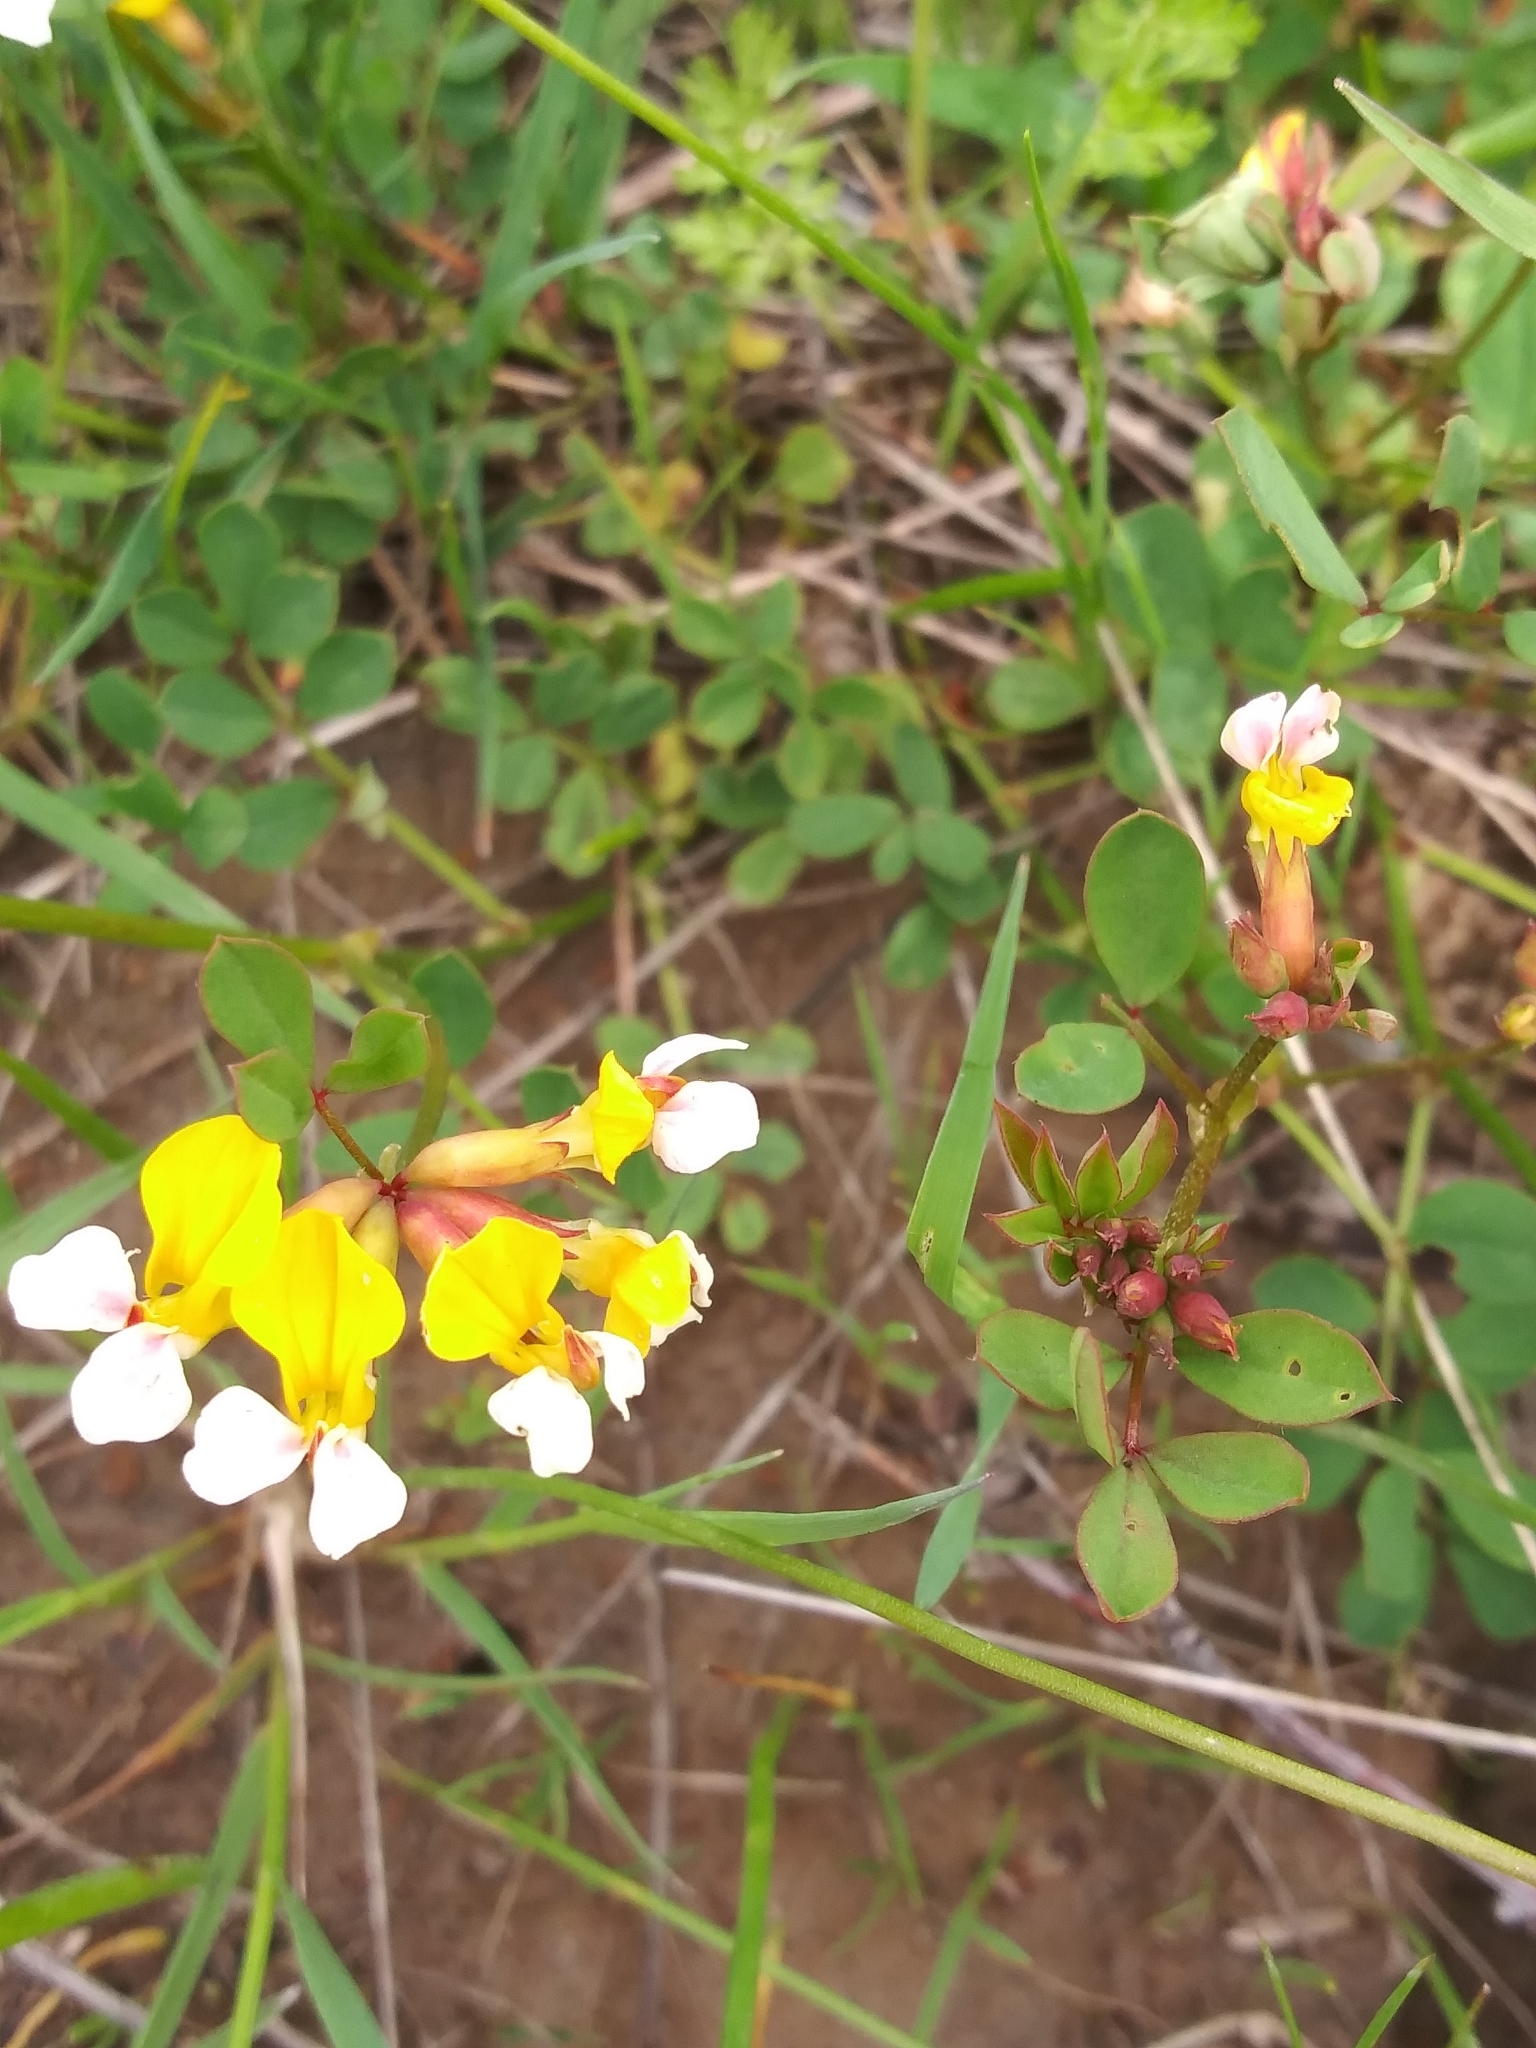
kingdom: Plantae
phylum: Tracheophyta
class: Magnoliopsida
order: Fabales
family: Fabaceae
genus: Hosackia
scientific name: Hosackia gracilis
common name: Seaside bird's-foot lotus
